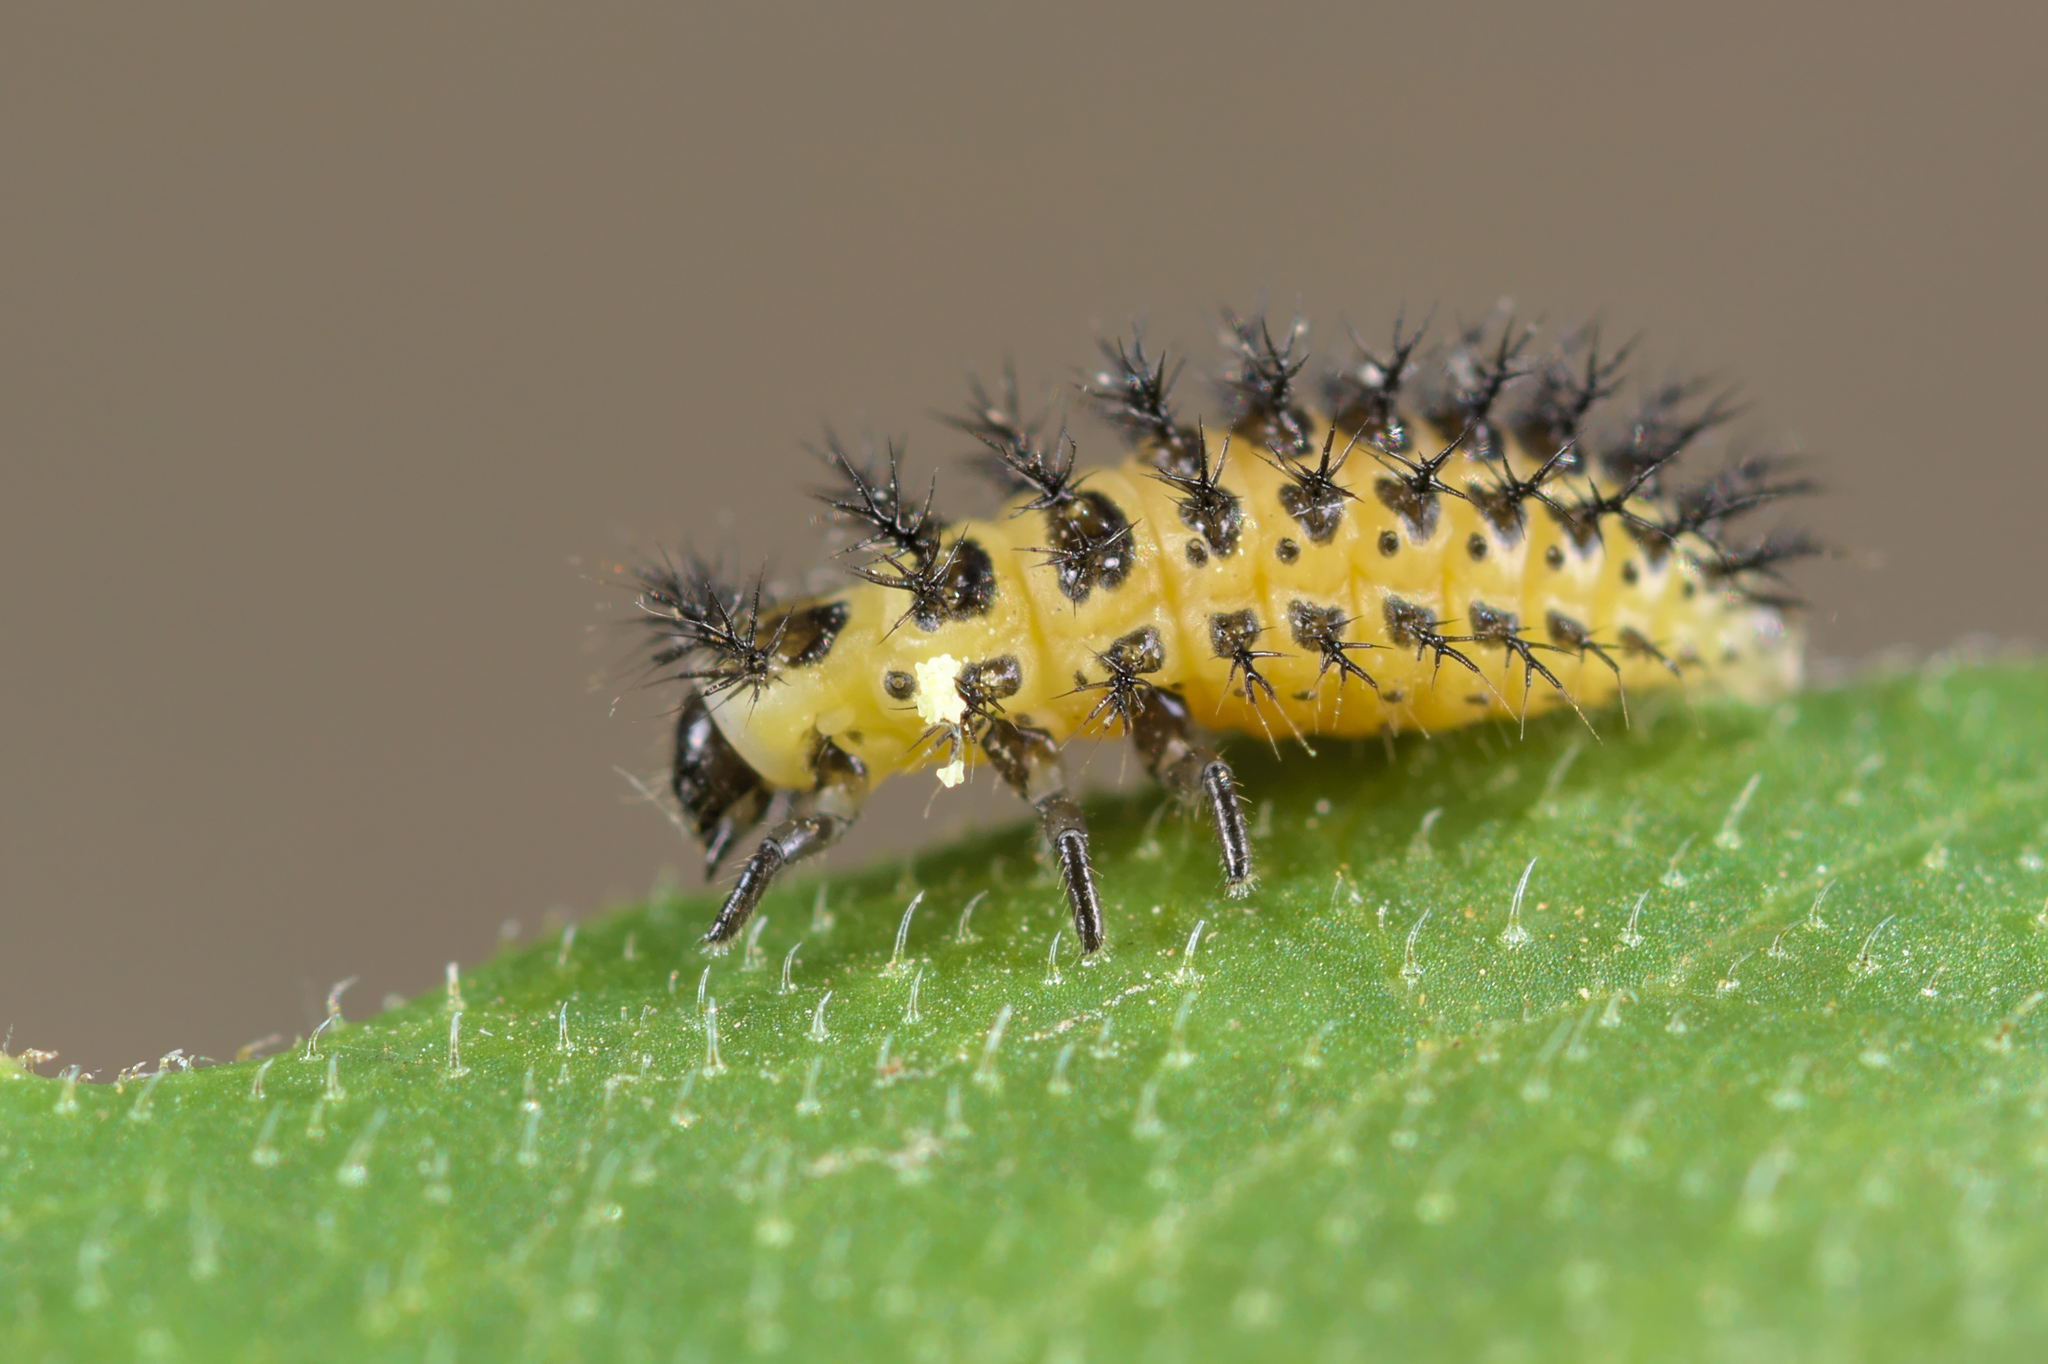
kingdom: Animalia
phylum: Arthropoda
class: Insecta
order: Coleoptera
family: Coccinellidae
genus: Henosepilachna
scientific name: Henosepilachna argus
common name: Bryony ladybird
